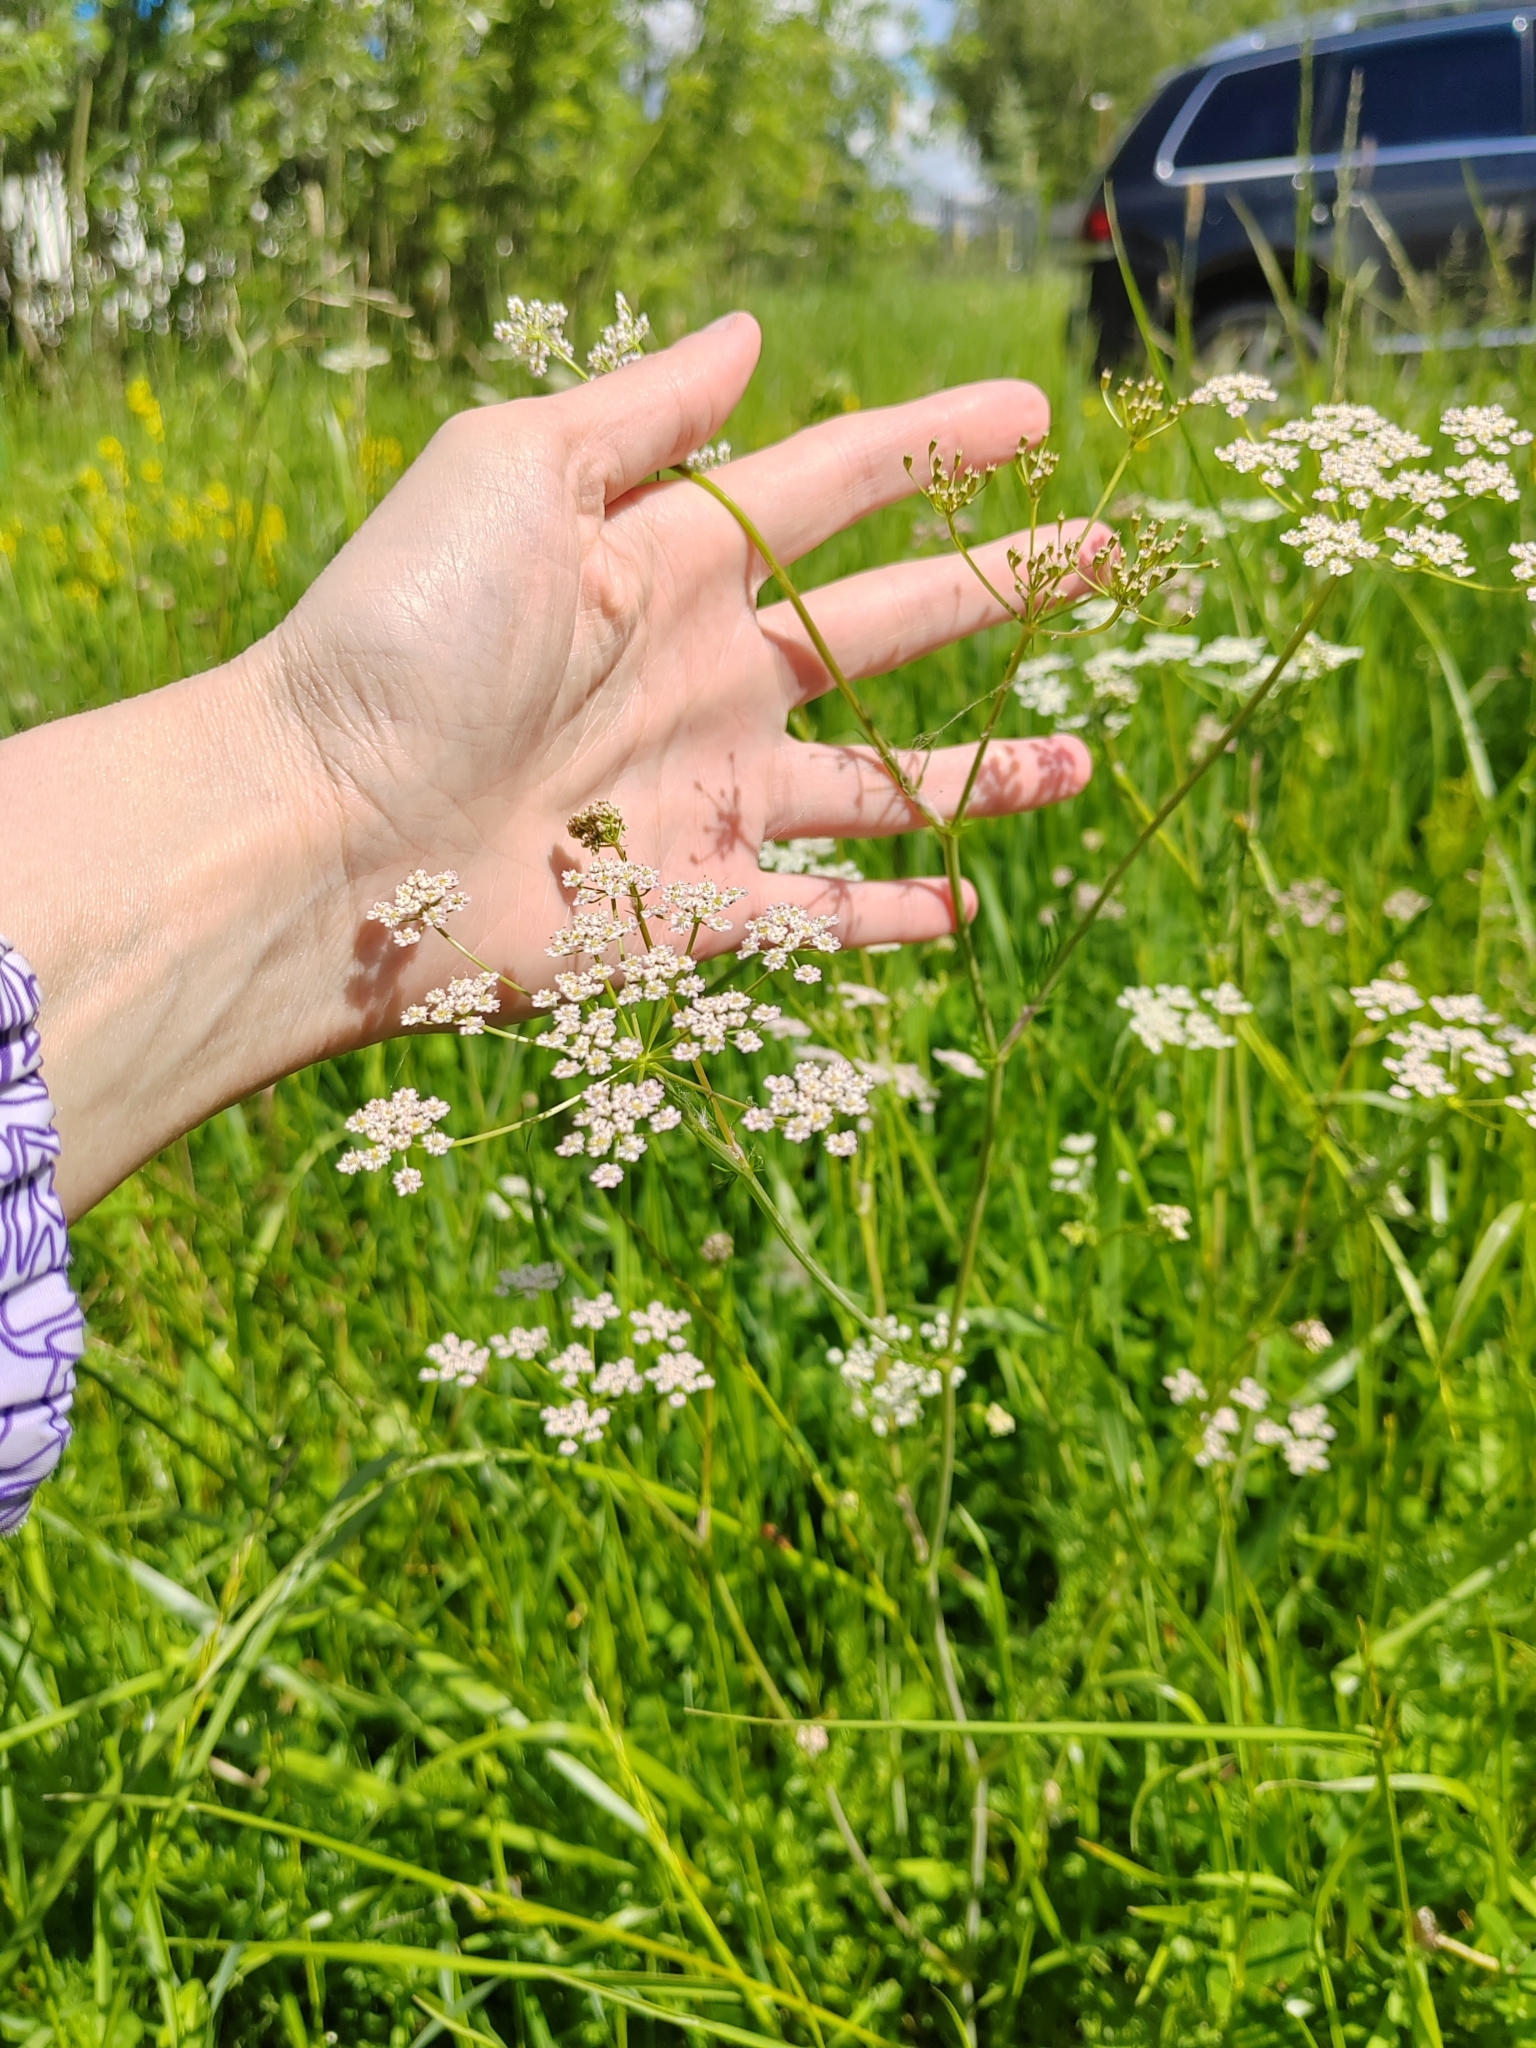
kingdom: Plantae
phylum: Tracheophyta
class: Magnoliopsida
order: Apiales
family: Apiaceae
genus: Carum
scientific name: Carum carvi
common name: Caraway
